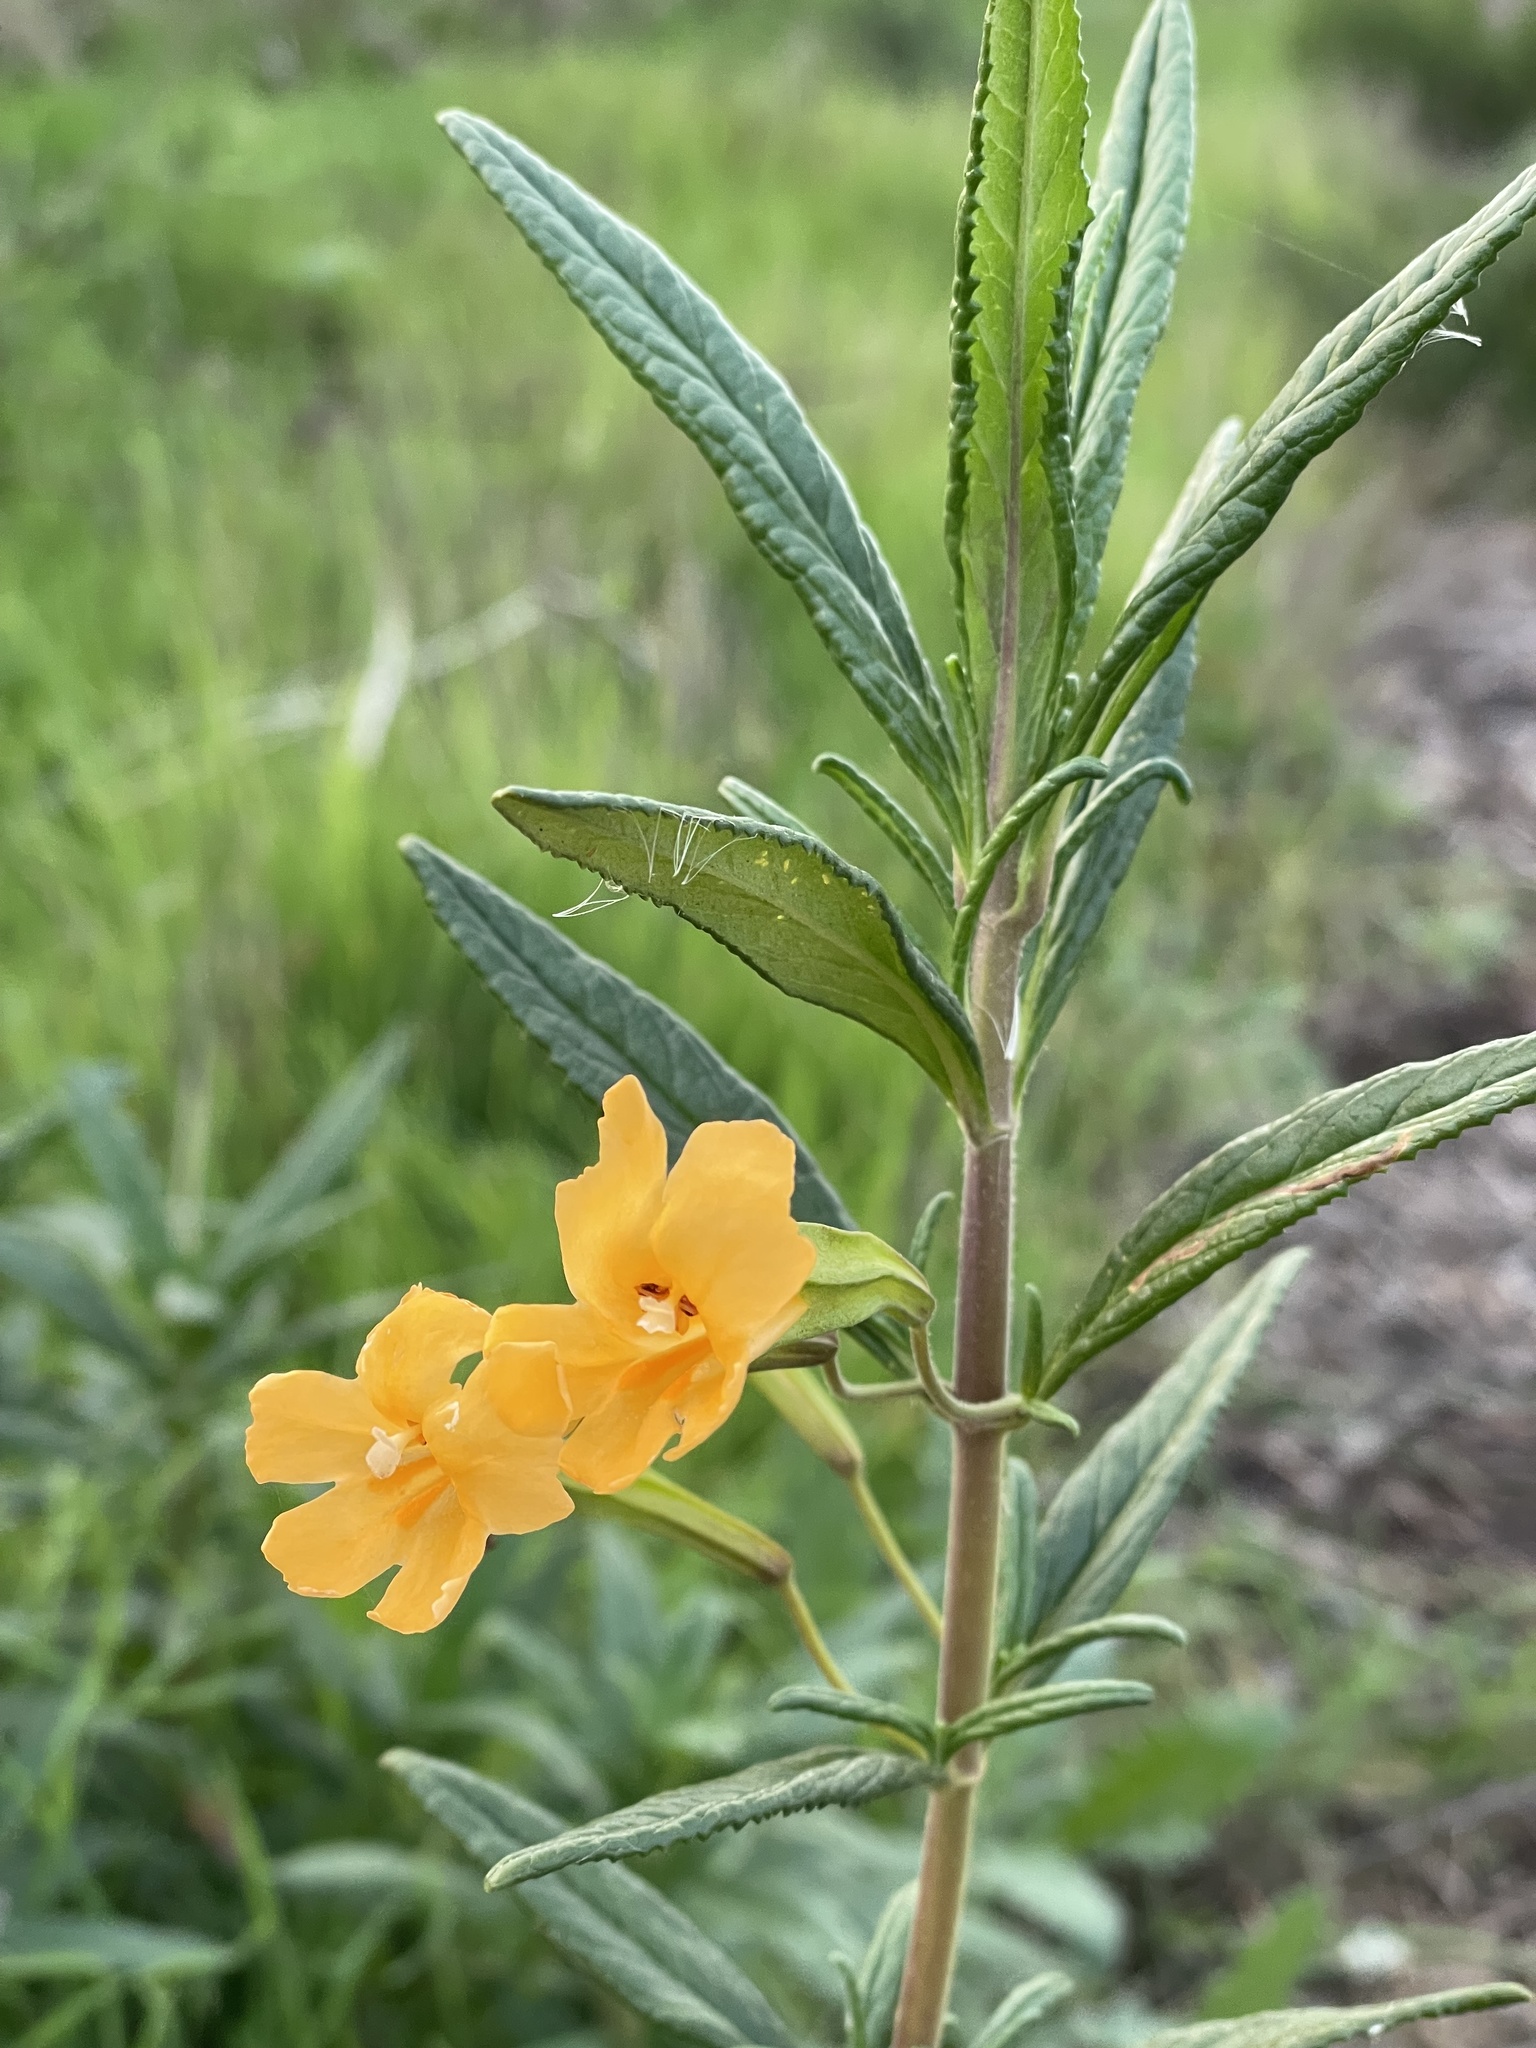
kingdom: Plantae
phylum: Tracheophyta
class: Magnoliopsida
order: Lamiales
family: Phrymaceae
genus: Diplacus
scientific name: Diplacus aurantiacus
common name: Bush monkey-flower
